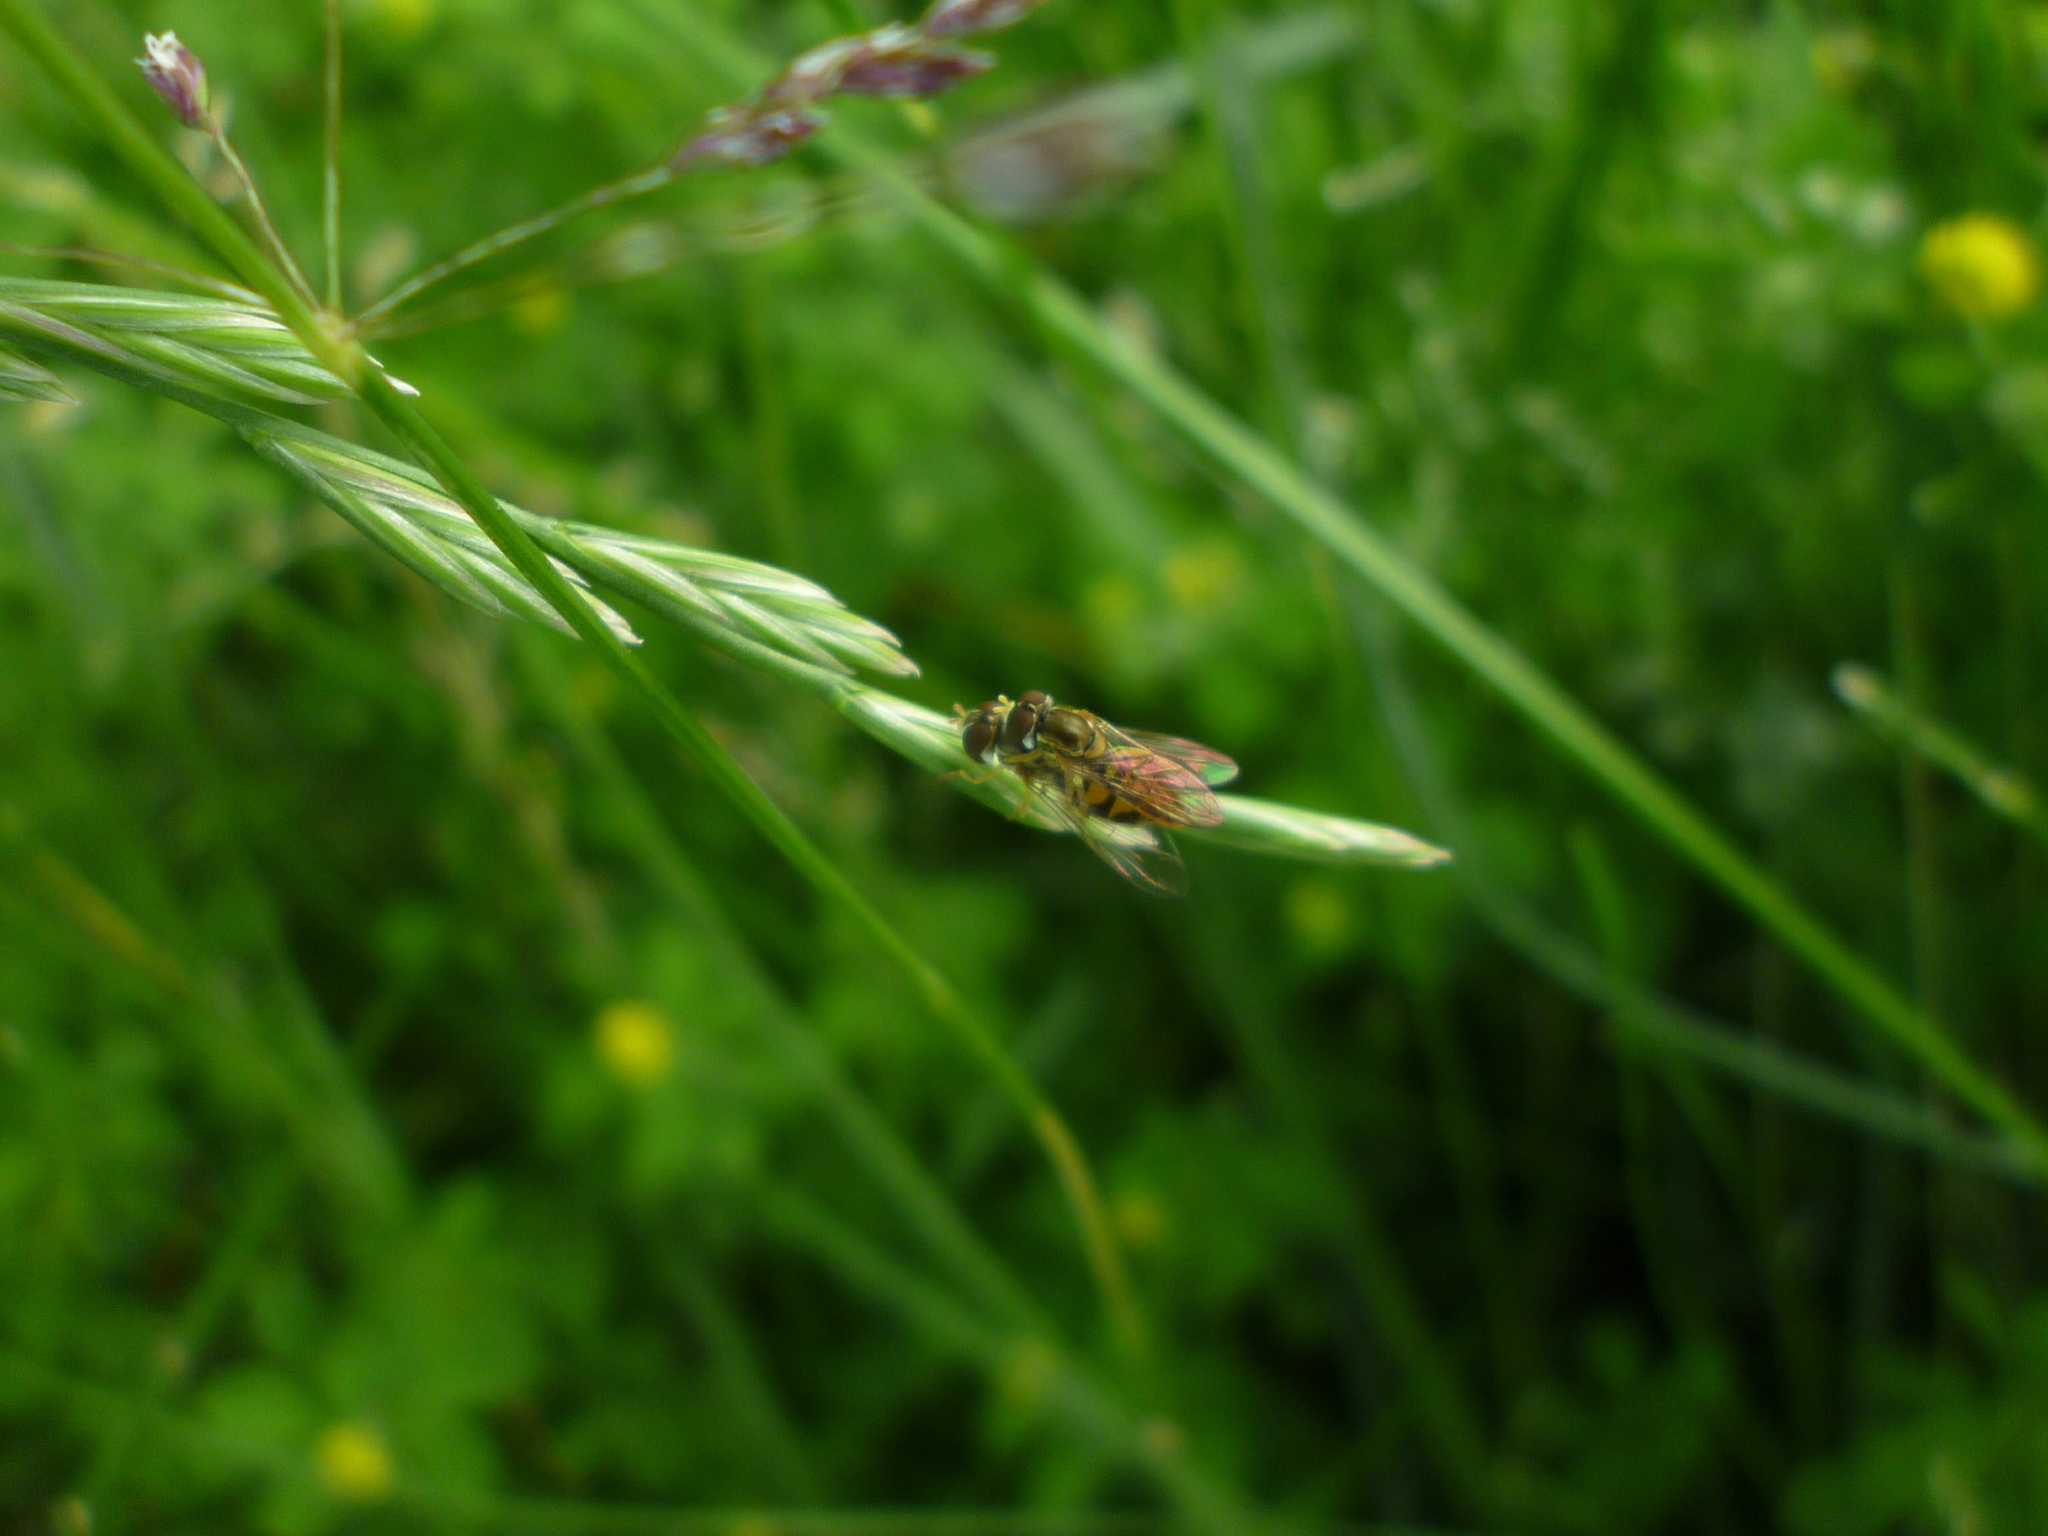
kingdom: Animalia
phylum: Arthropoda
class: Insecta
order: Diptera
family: Syrphidae
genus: Toxomerus
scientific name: Toxomerus marginatus
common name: Syrphid fly
